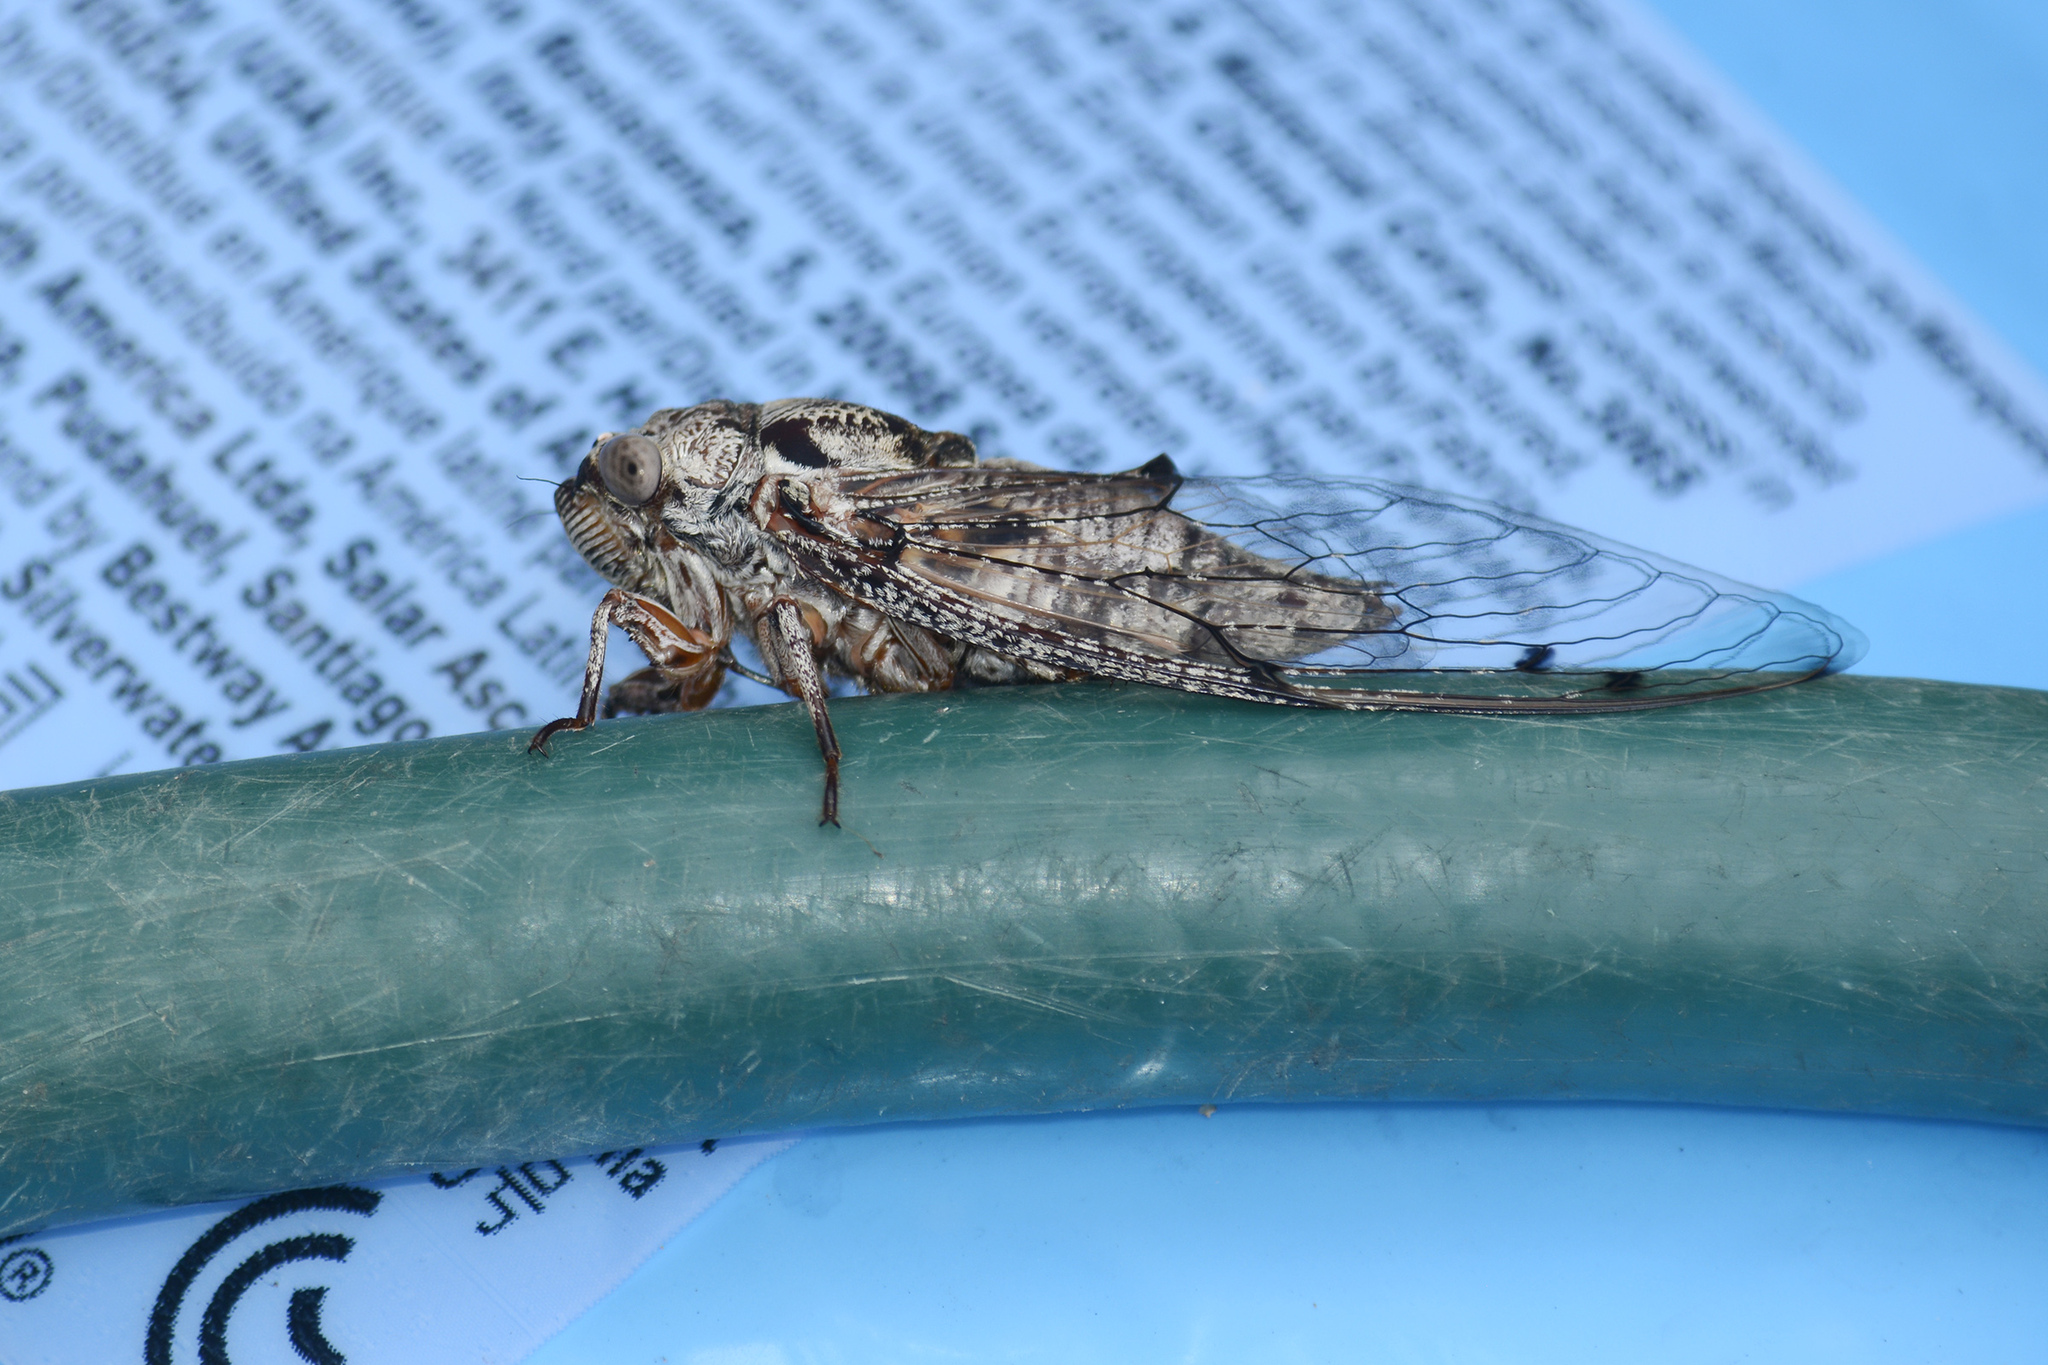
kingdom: Animalia
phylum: Arthropoda
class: Insecta
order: Hemiptera
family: Cicadidae
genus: Aleeta
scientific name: Aleeta curvicosta
